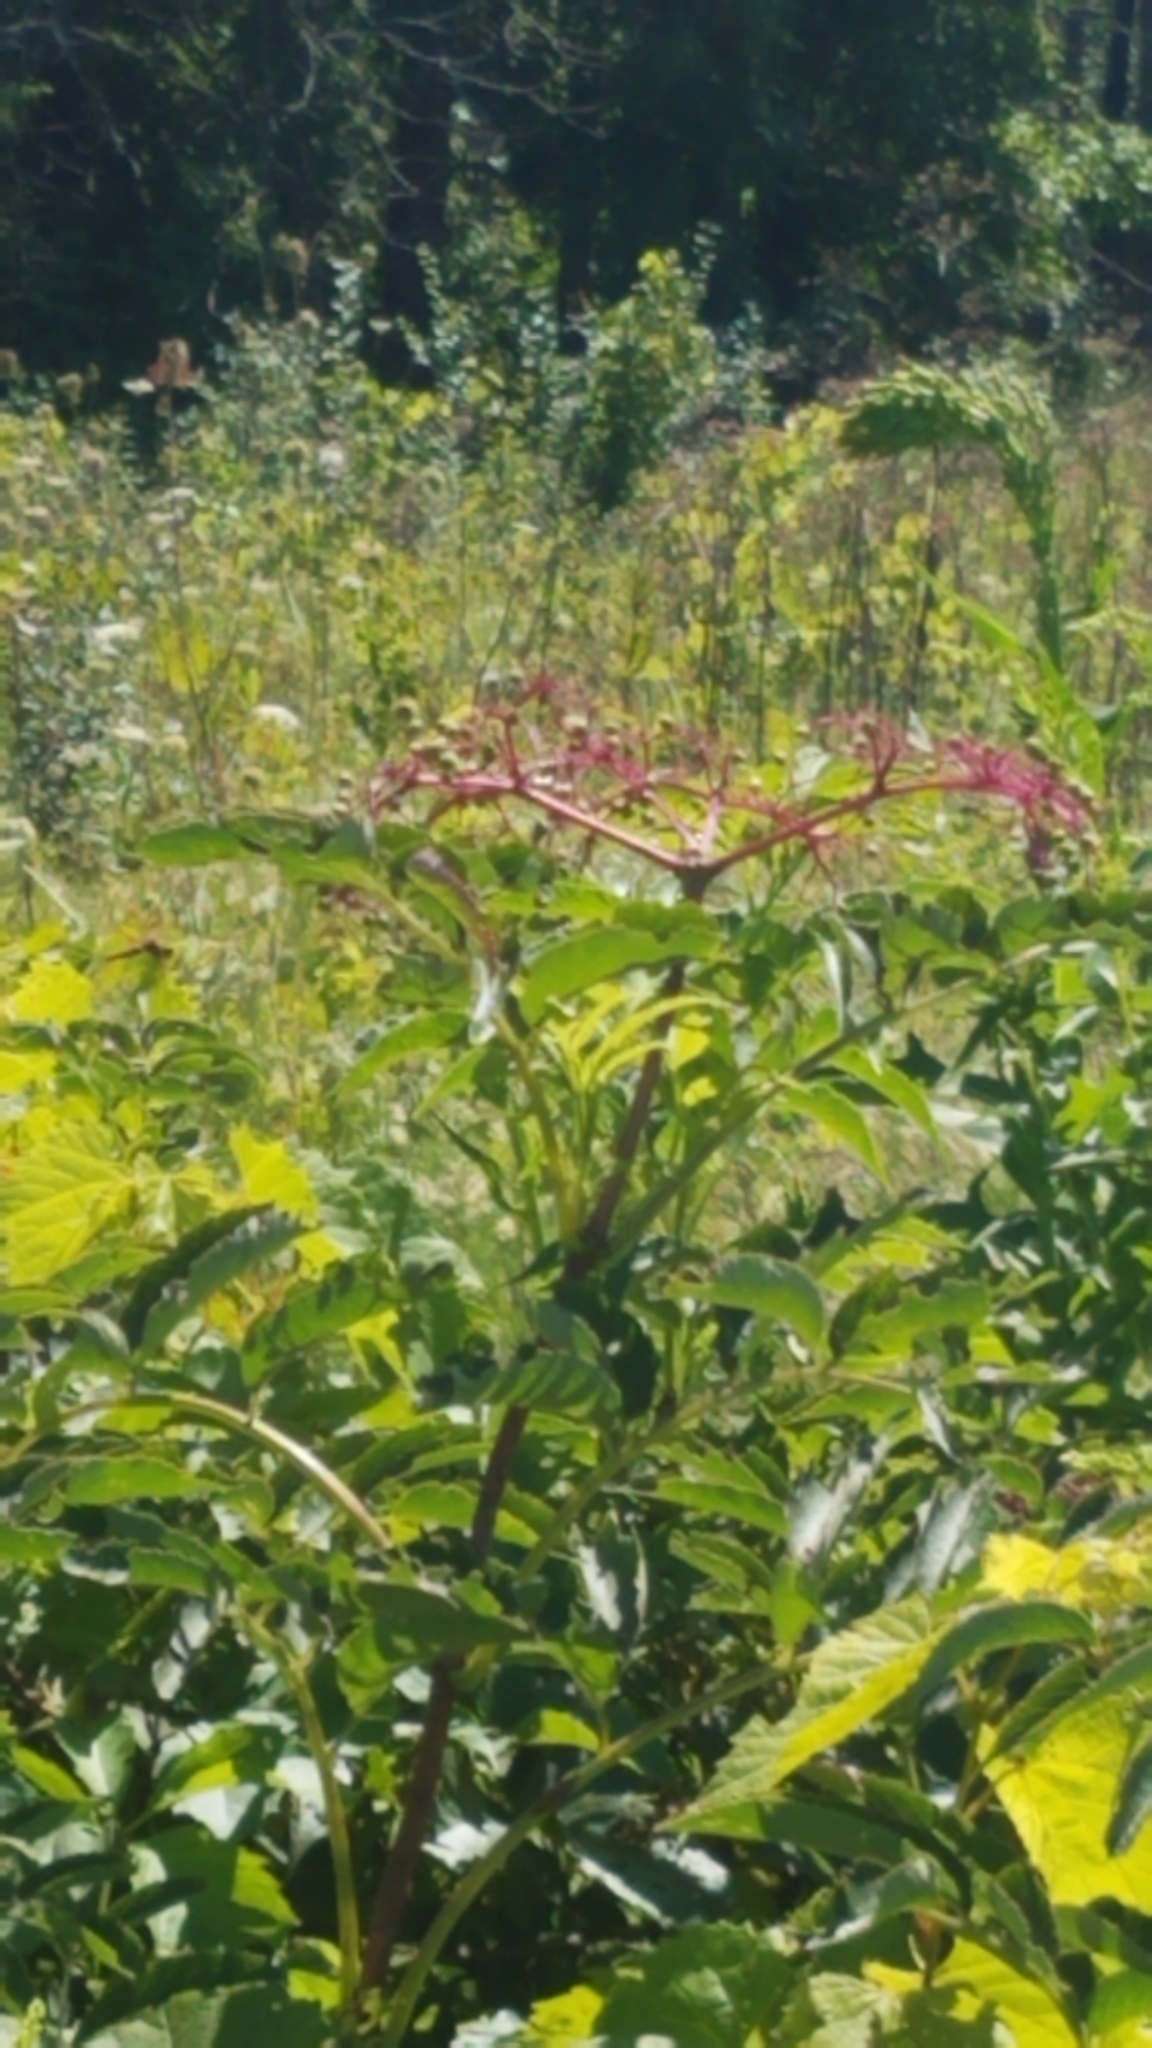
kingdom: Plantae
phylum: Tracheophyta
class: Magnoliopsida
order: Dipsacales
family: Viburnaceae
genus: Sambucus
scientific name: Sambucus canadensis
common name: American elder
